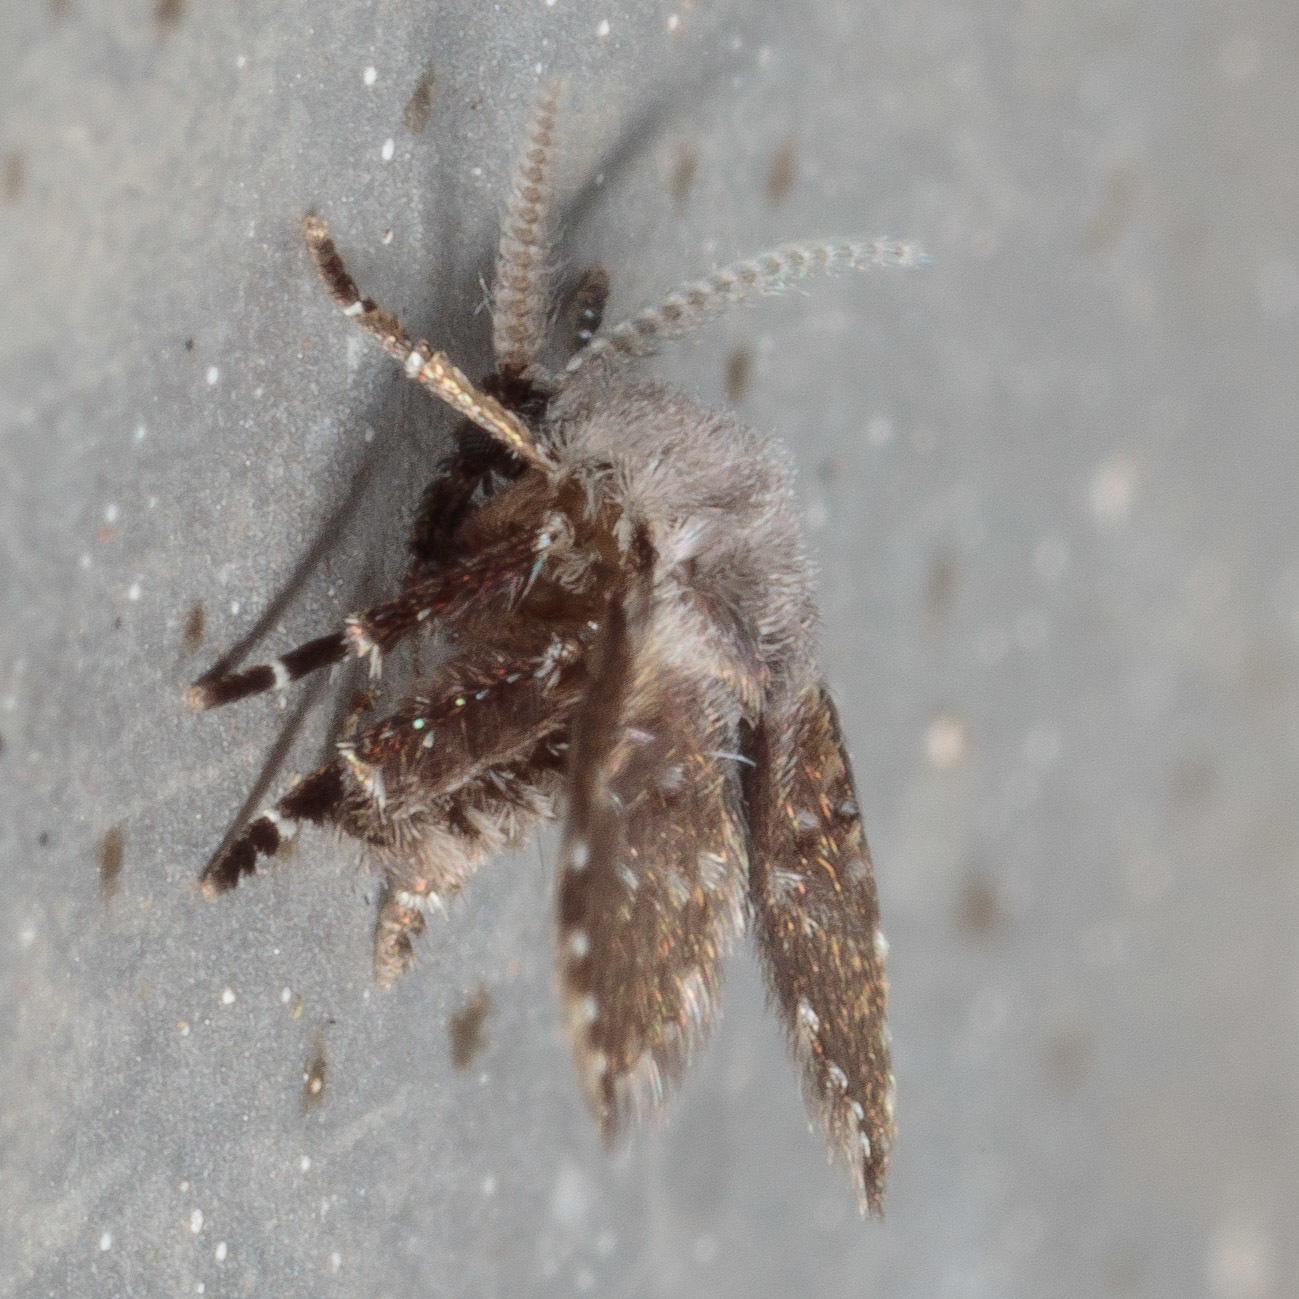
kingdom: Animalia
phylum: Arthropoda
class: Insecta
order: Diptera
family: Psychodidae
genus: Clogmia
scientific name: Clogmia albipunctatus
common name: White-spotted moth fly
